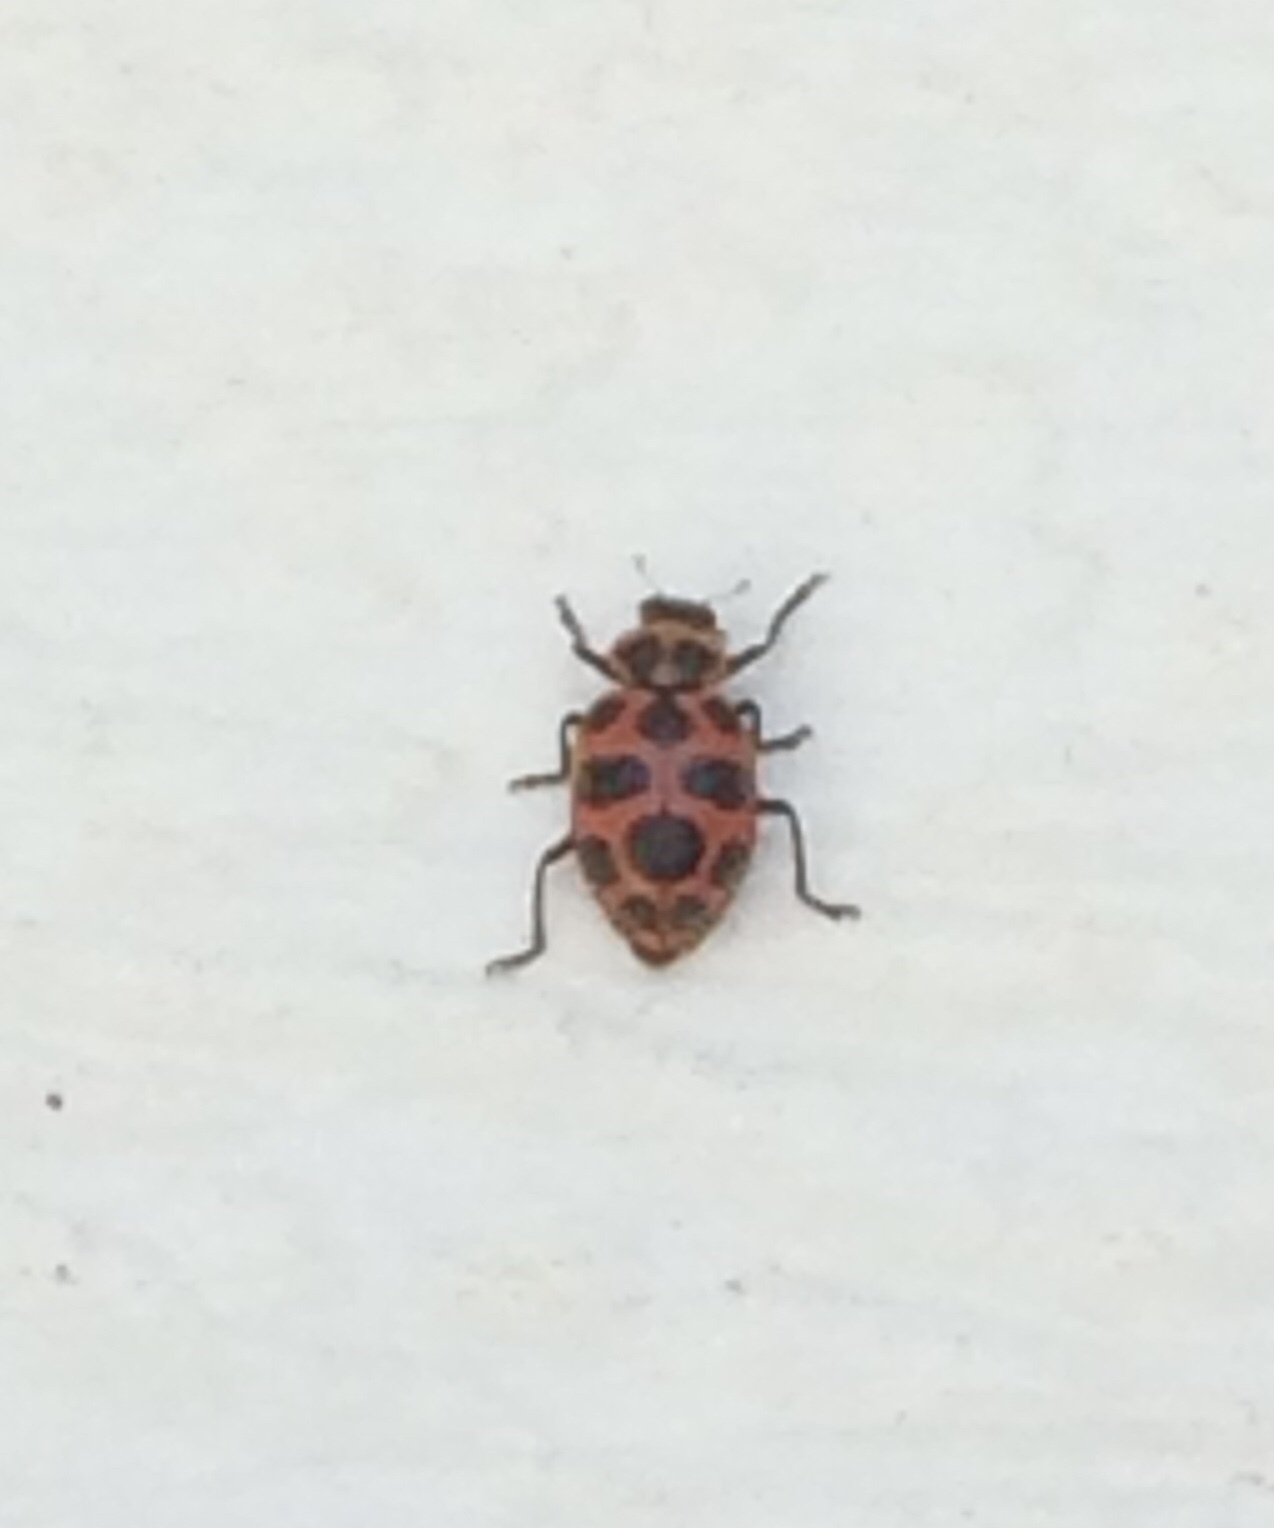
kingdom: Animalia
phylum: Arthropoda
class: Insecta
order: Coleoptera
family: Coccinellidae
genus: Coleomegilla
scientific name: Coleomegilla maculata
